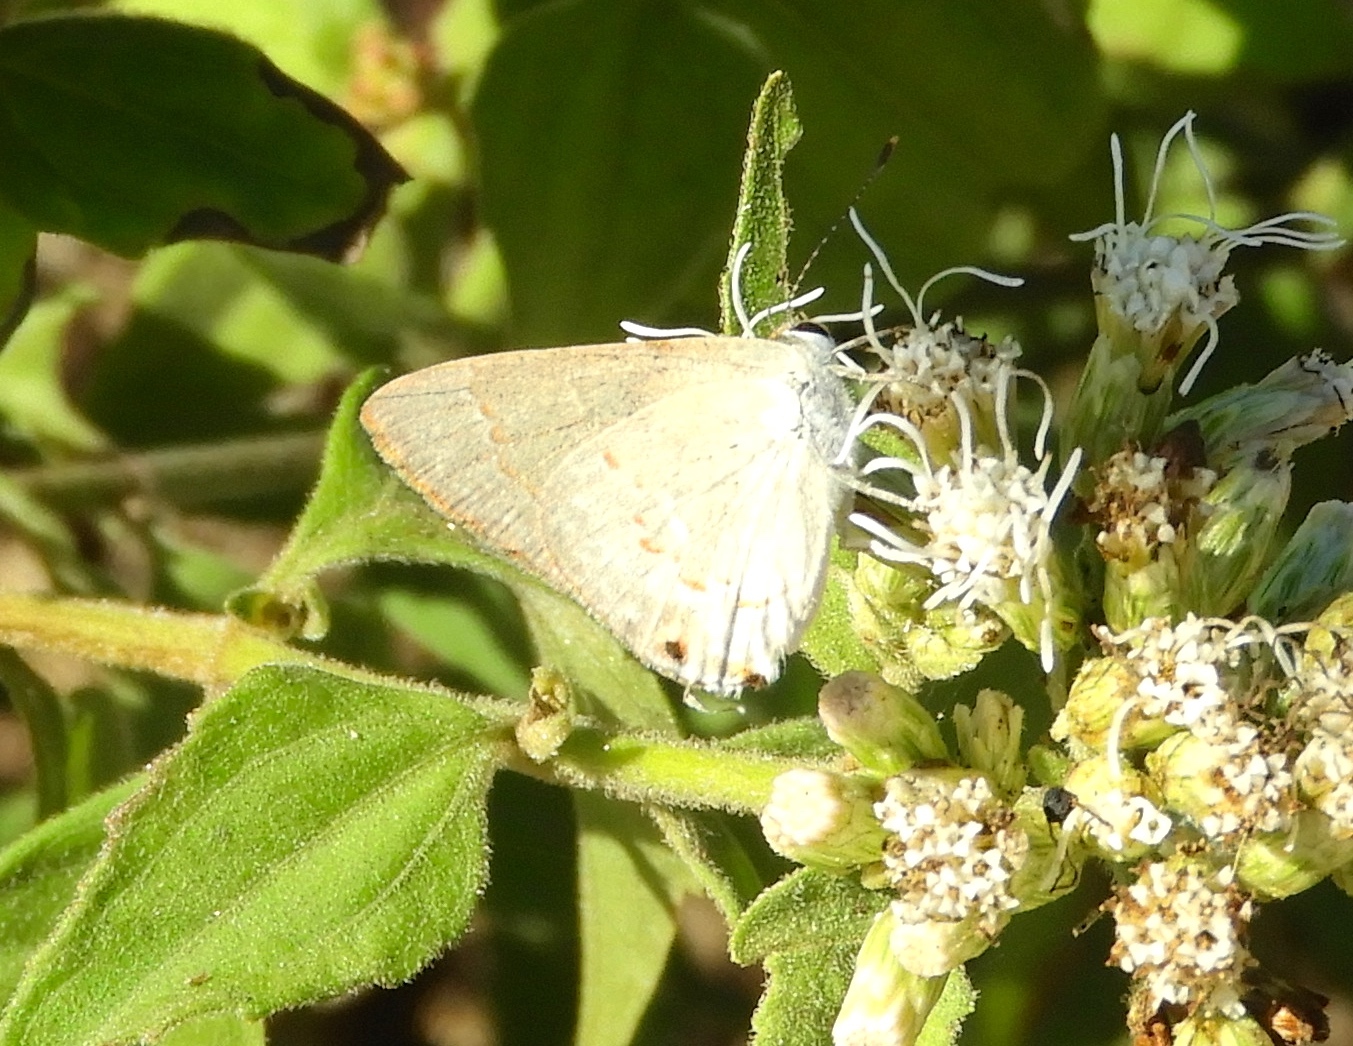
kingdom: Animalia
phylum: Arthropoda
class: Insecta
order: Lepidoptera
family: Lycaenidae
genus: Thecla
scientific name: Thecla rufofusca
